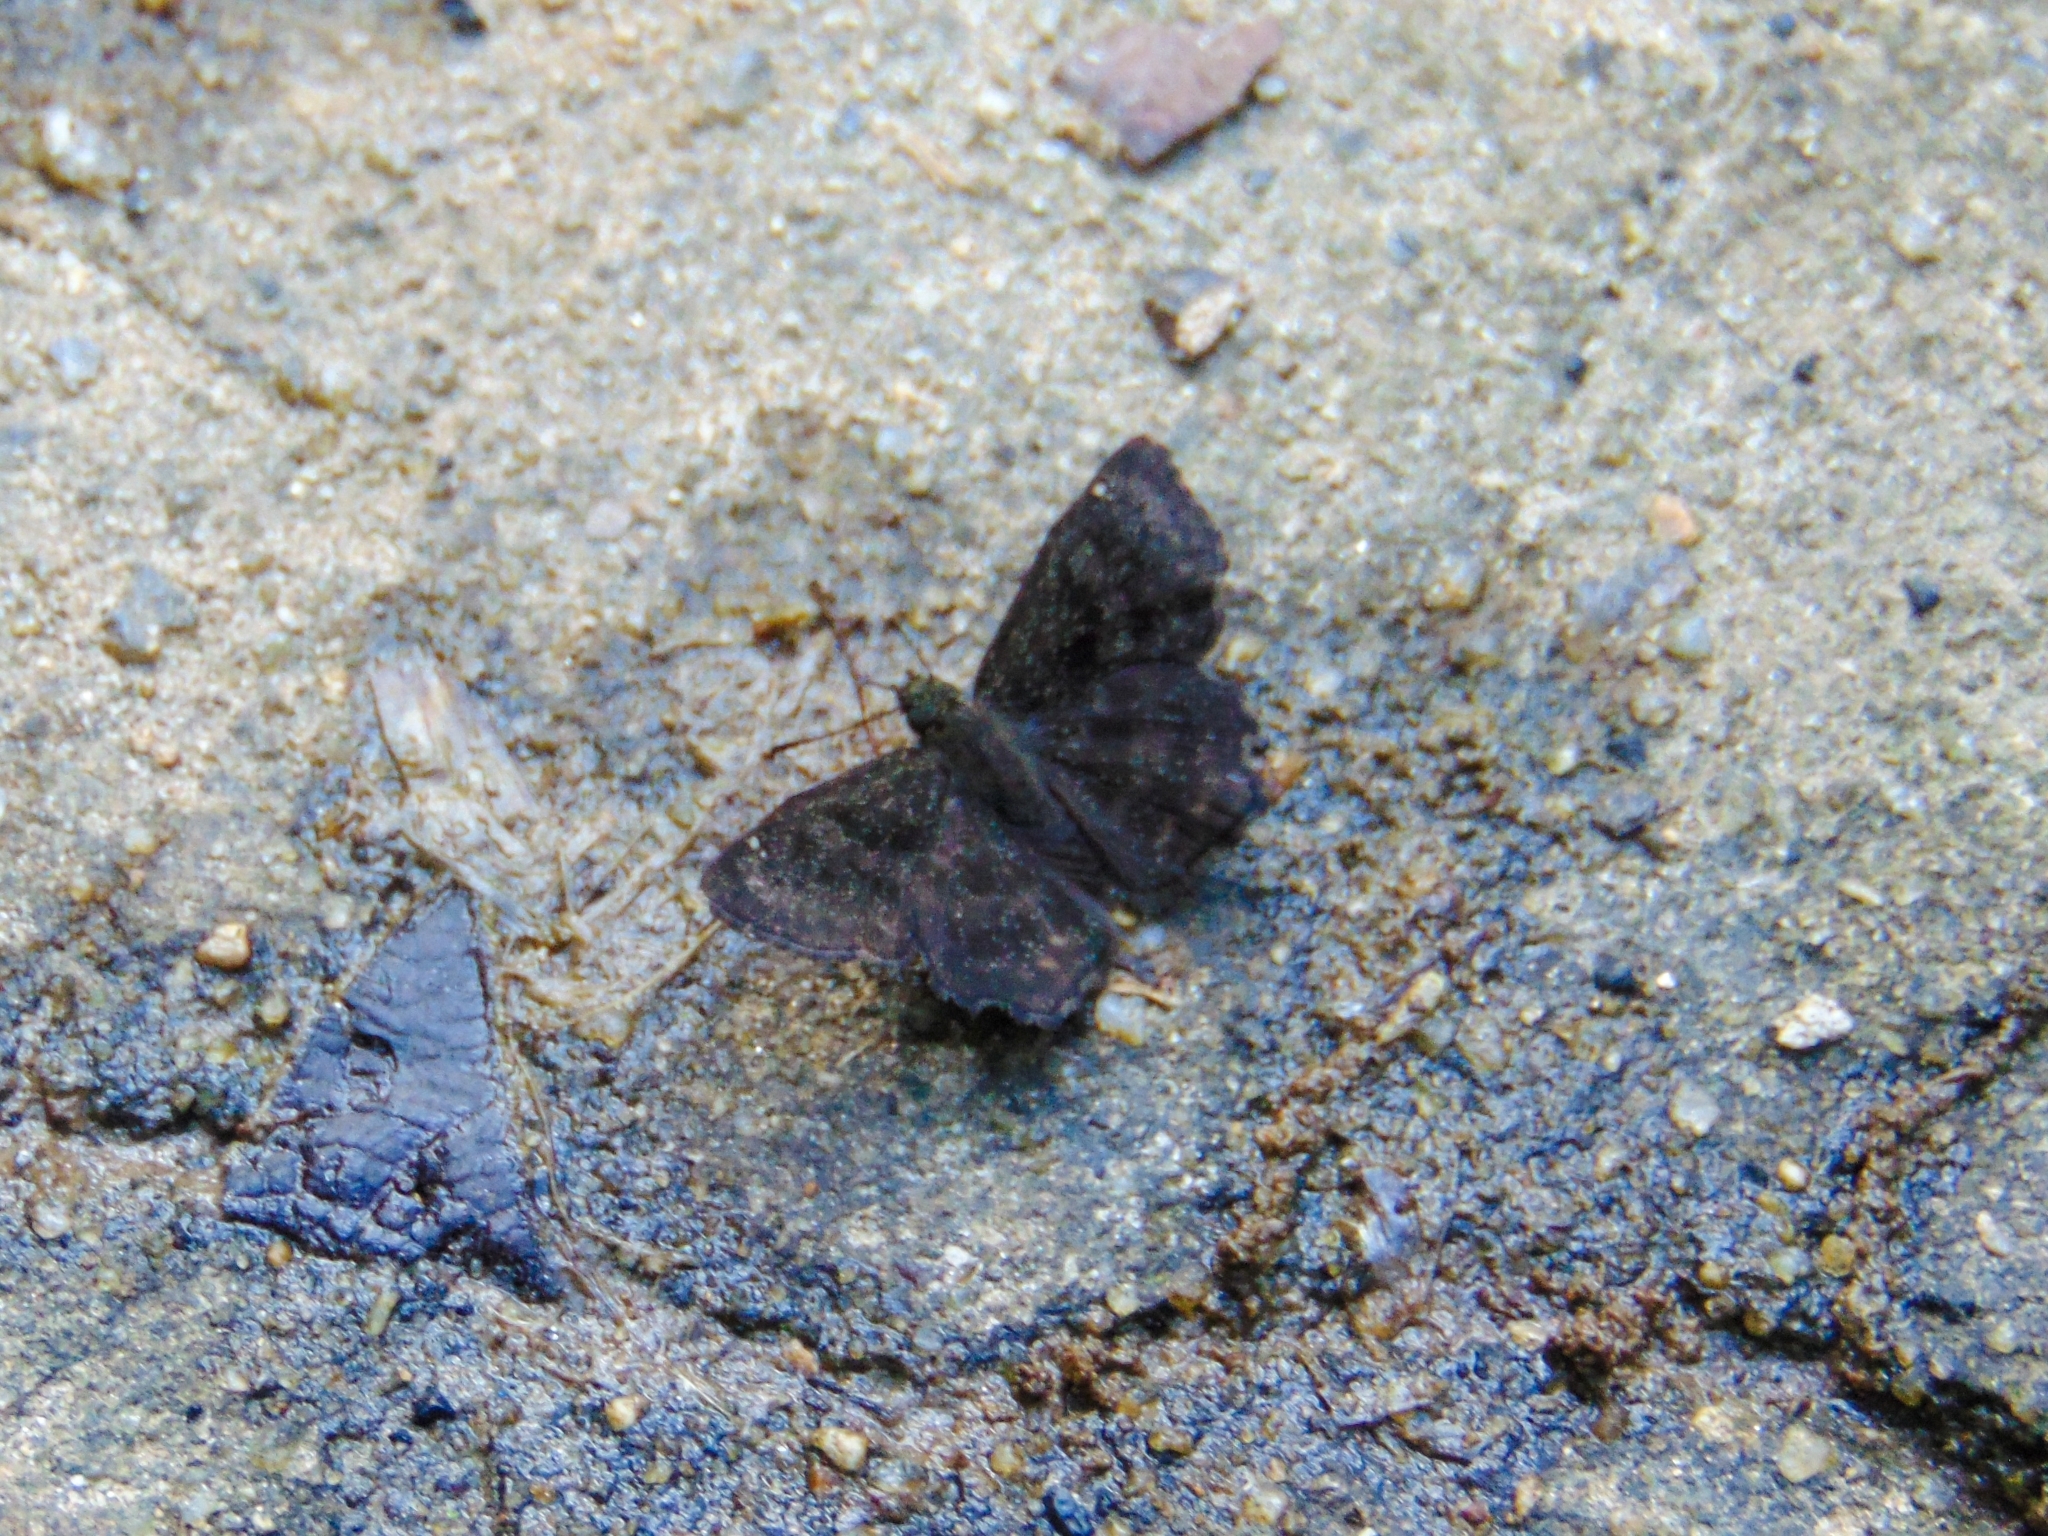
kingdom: Animalia
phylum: Arthropoda
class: Insecta
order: Lepidoptera
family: Hesperiidae
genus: Incisus
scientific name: Incisus
